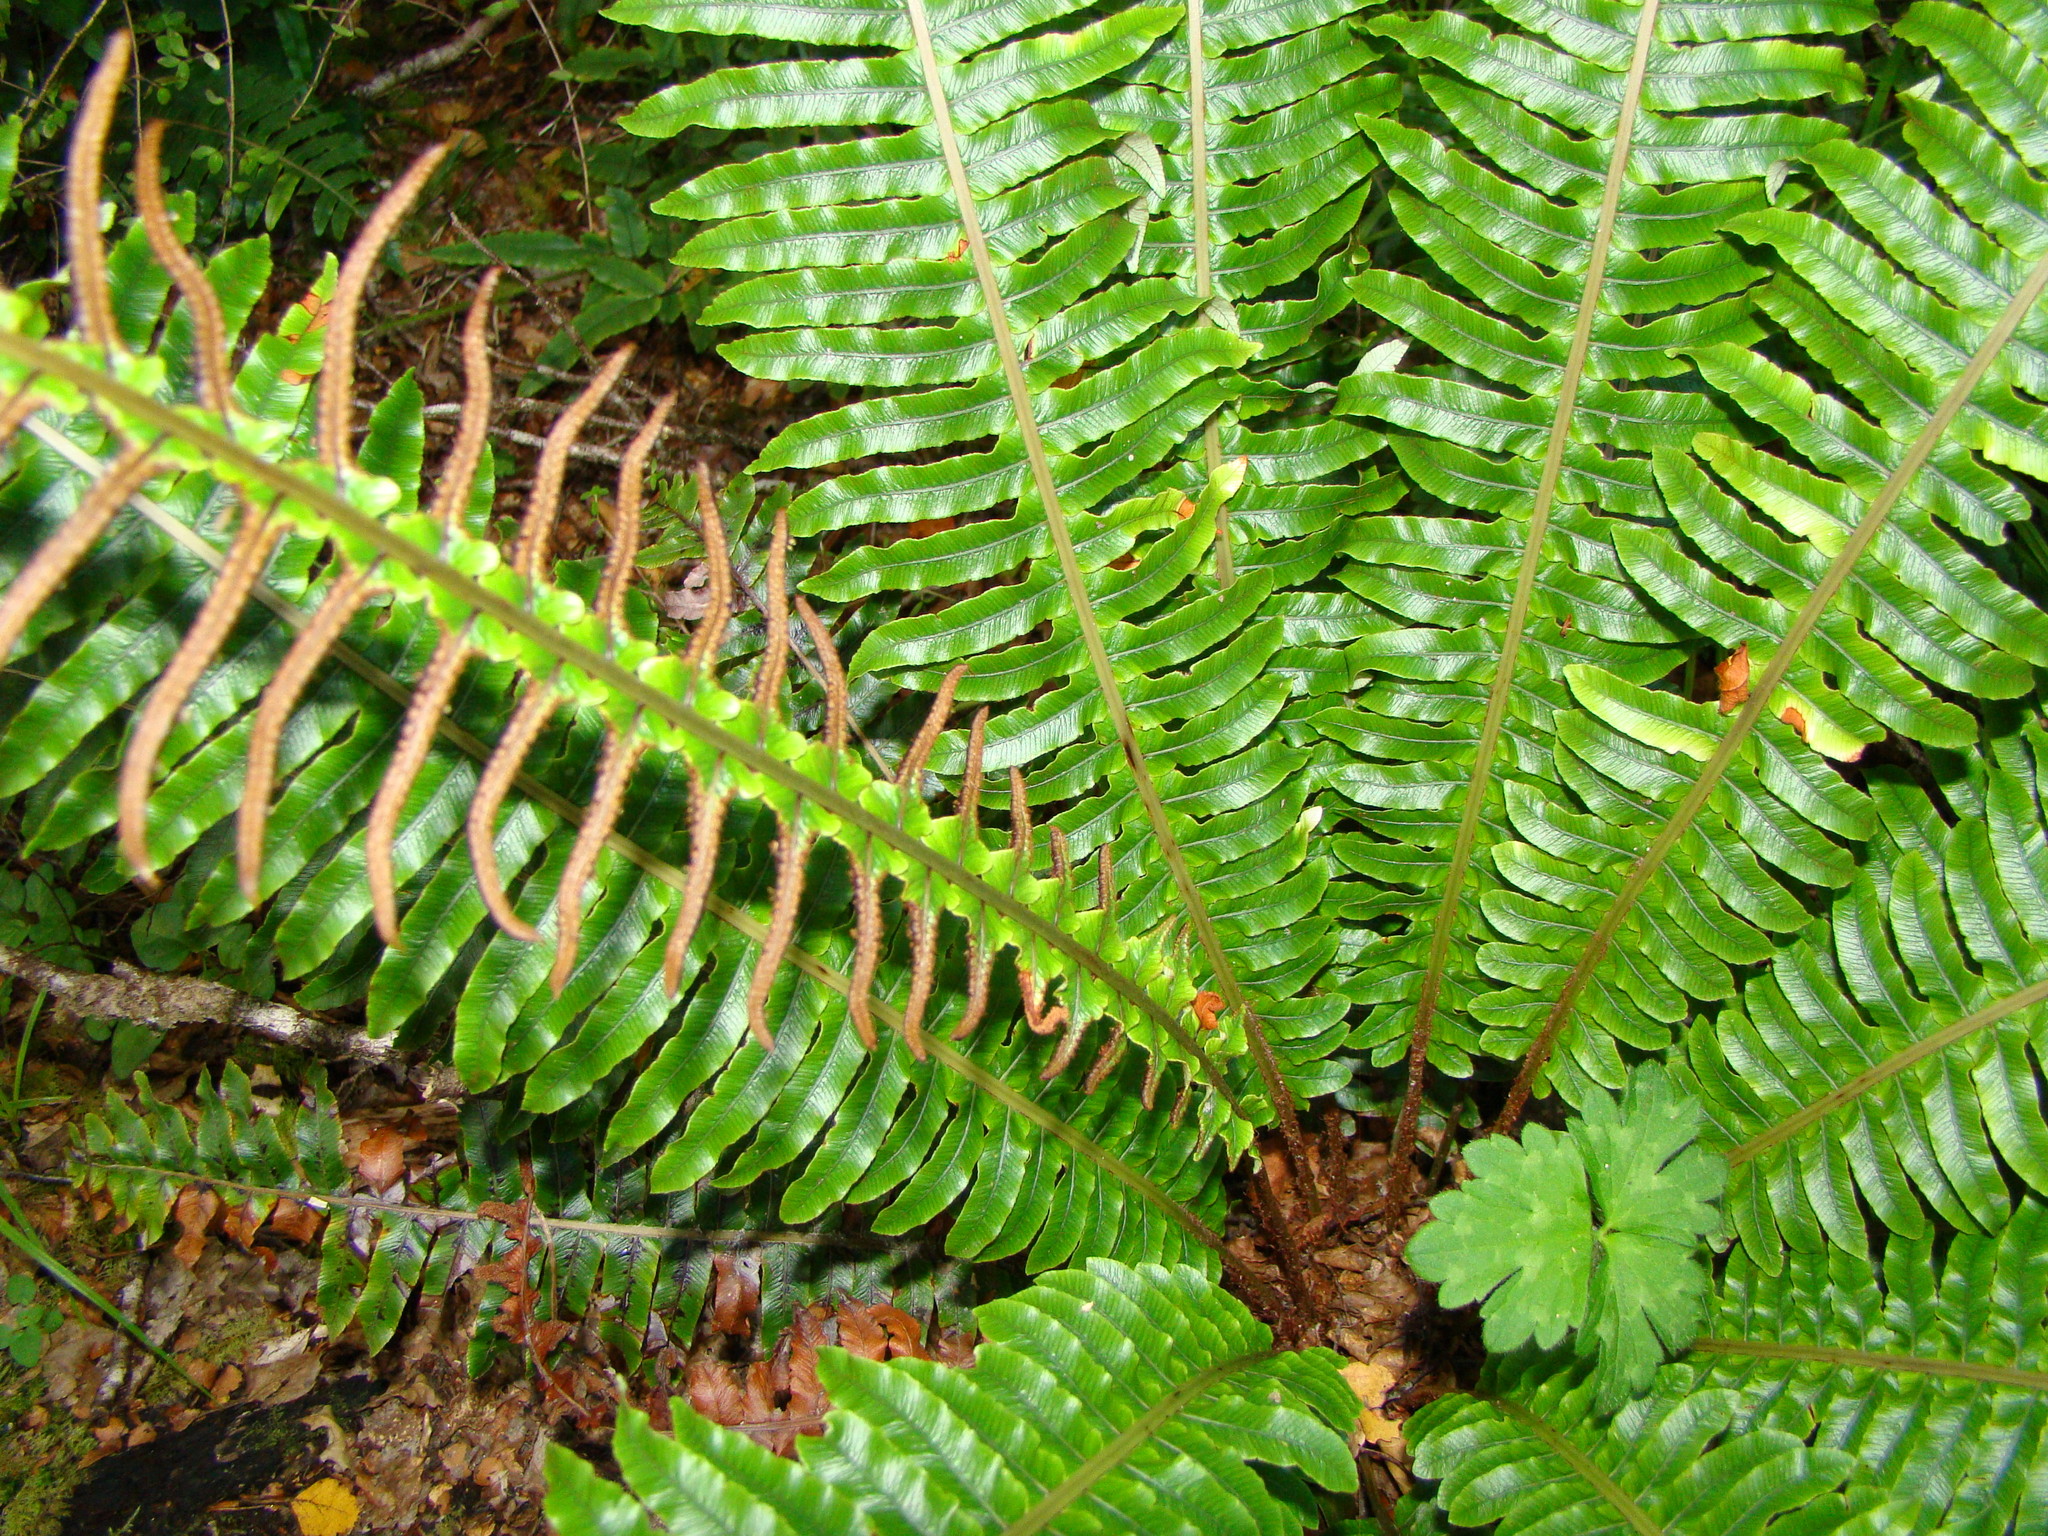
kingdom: Plantae
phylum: Tracheophyta
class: Polypodiopsida
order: Polypodiales
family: Blechnaceae
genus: Lomaria
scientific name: Lomaria discolor
